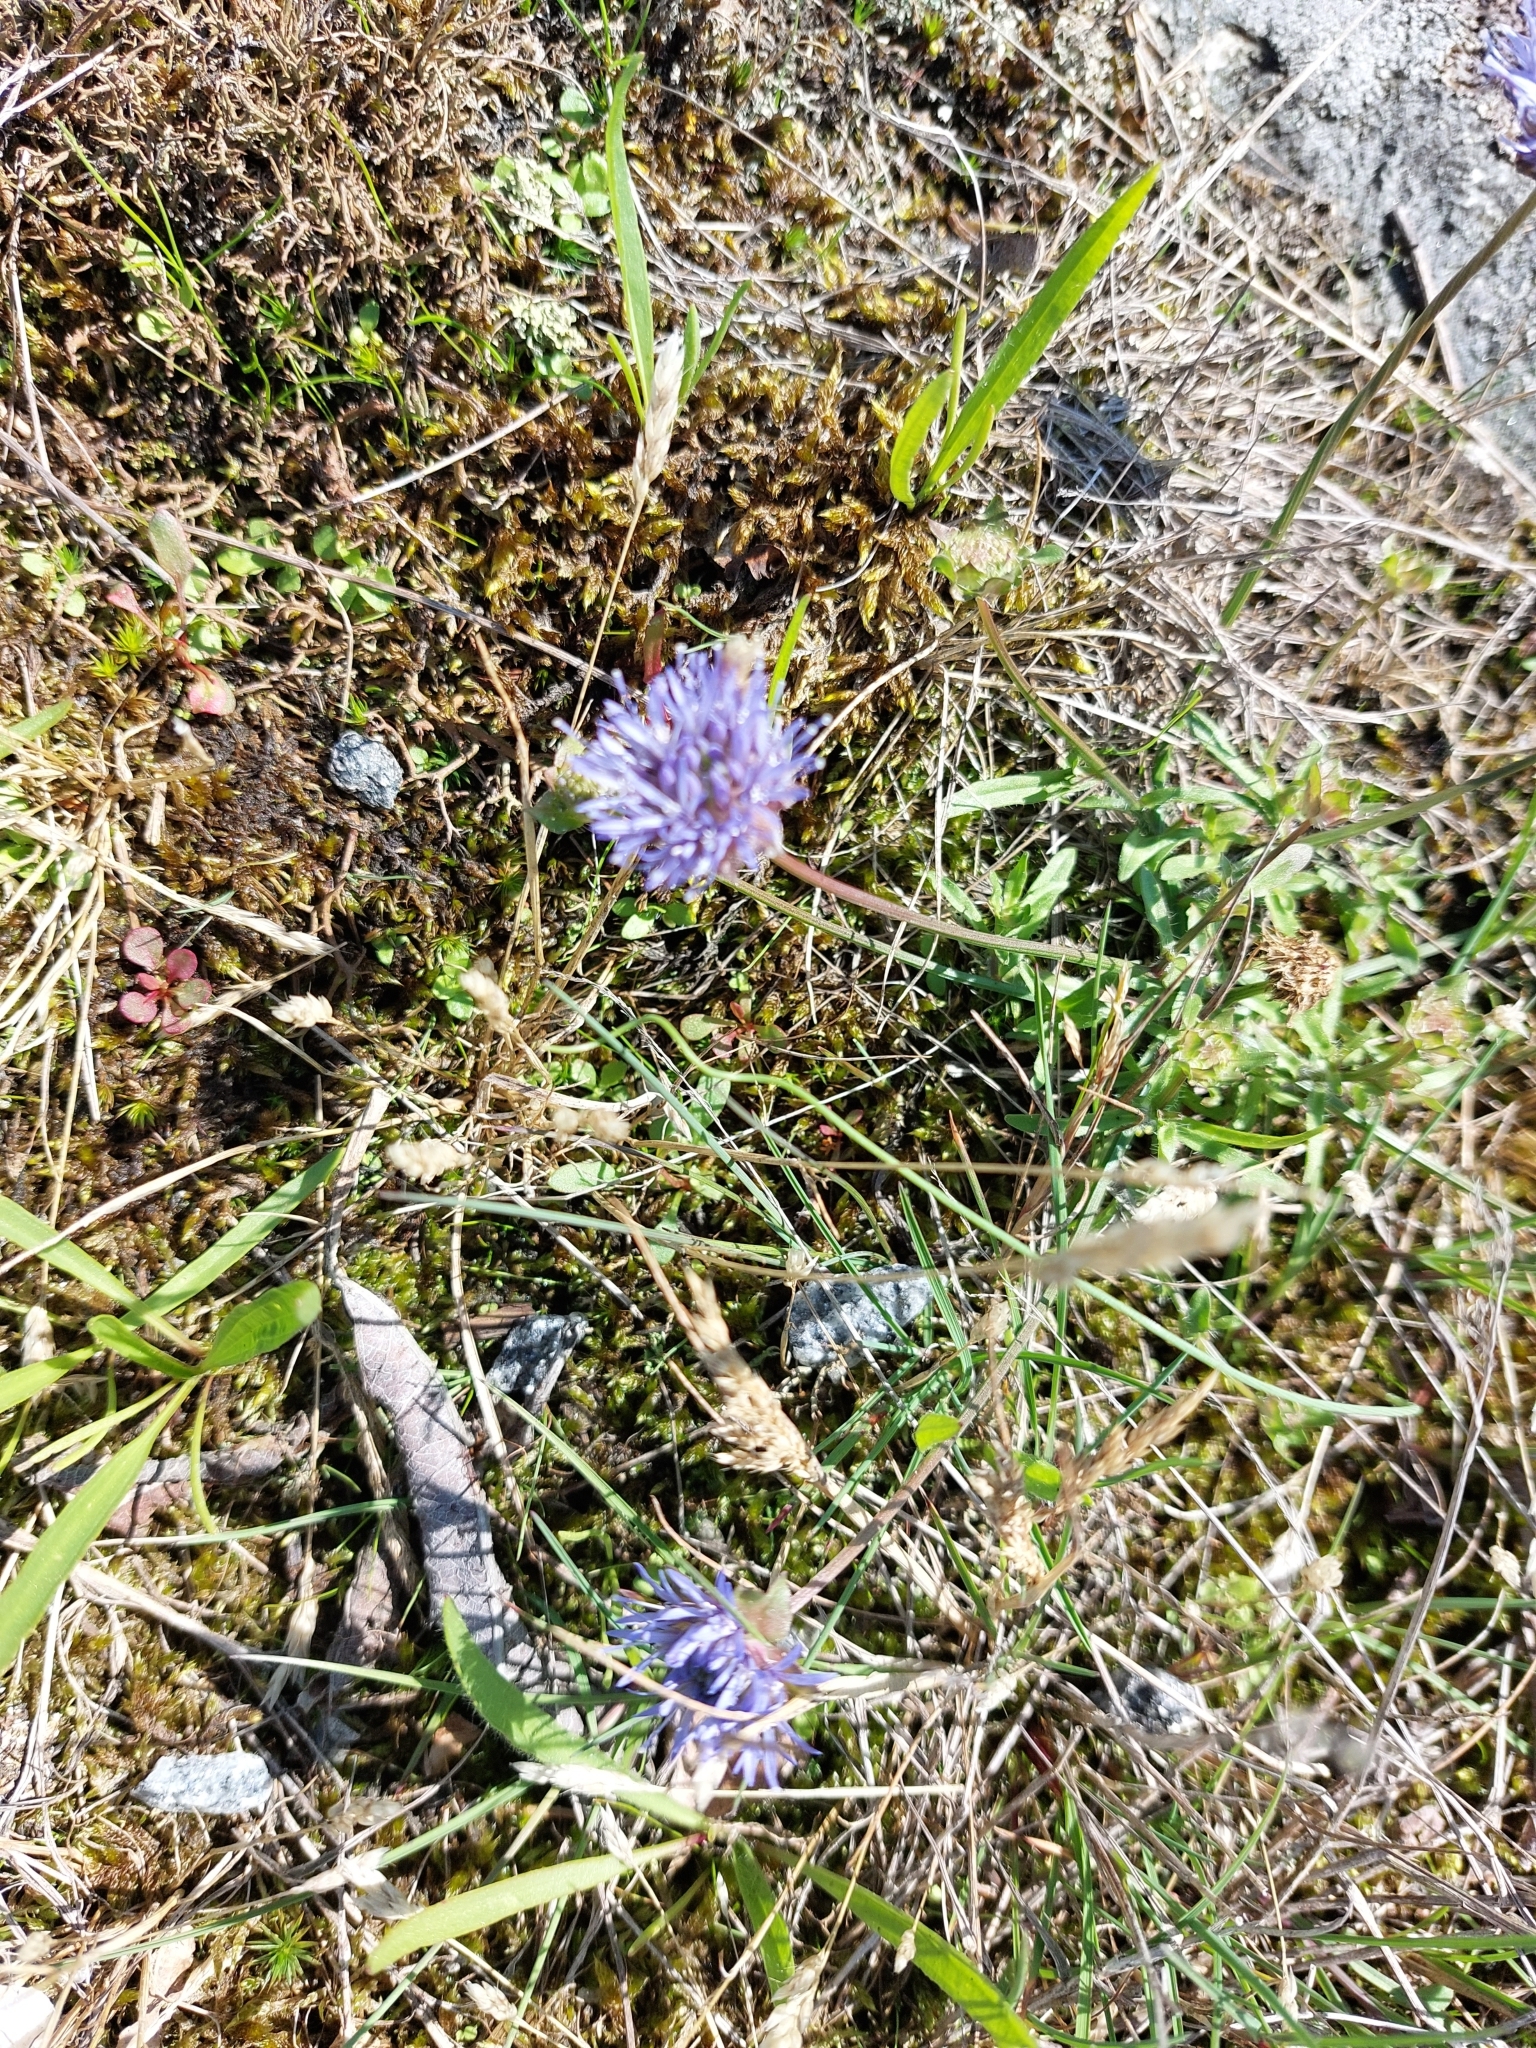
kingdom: Plantae
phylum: Tracheophyta
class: Magnoliopsida
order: Asterales
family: Campanulaceae
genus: Jasione
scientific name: Jasione montana
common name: Sheep's-bit
